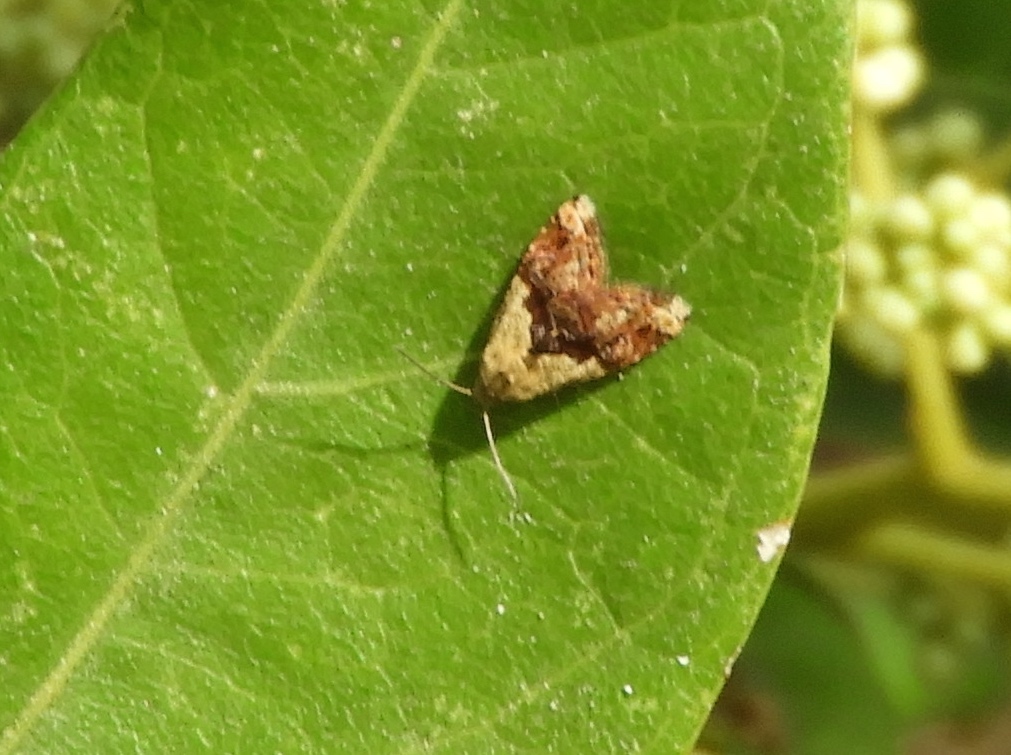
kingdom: Animalia
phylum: Arthropoda
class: Insecta
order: Lepidoptera
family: Noctuidae
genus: Tripudia
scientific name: Tripudia
